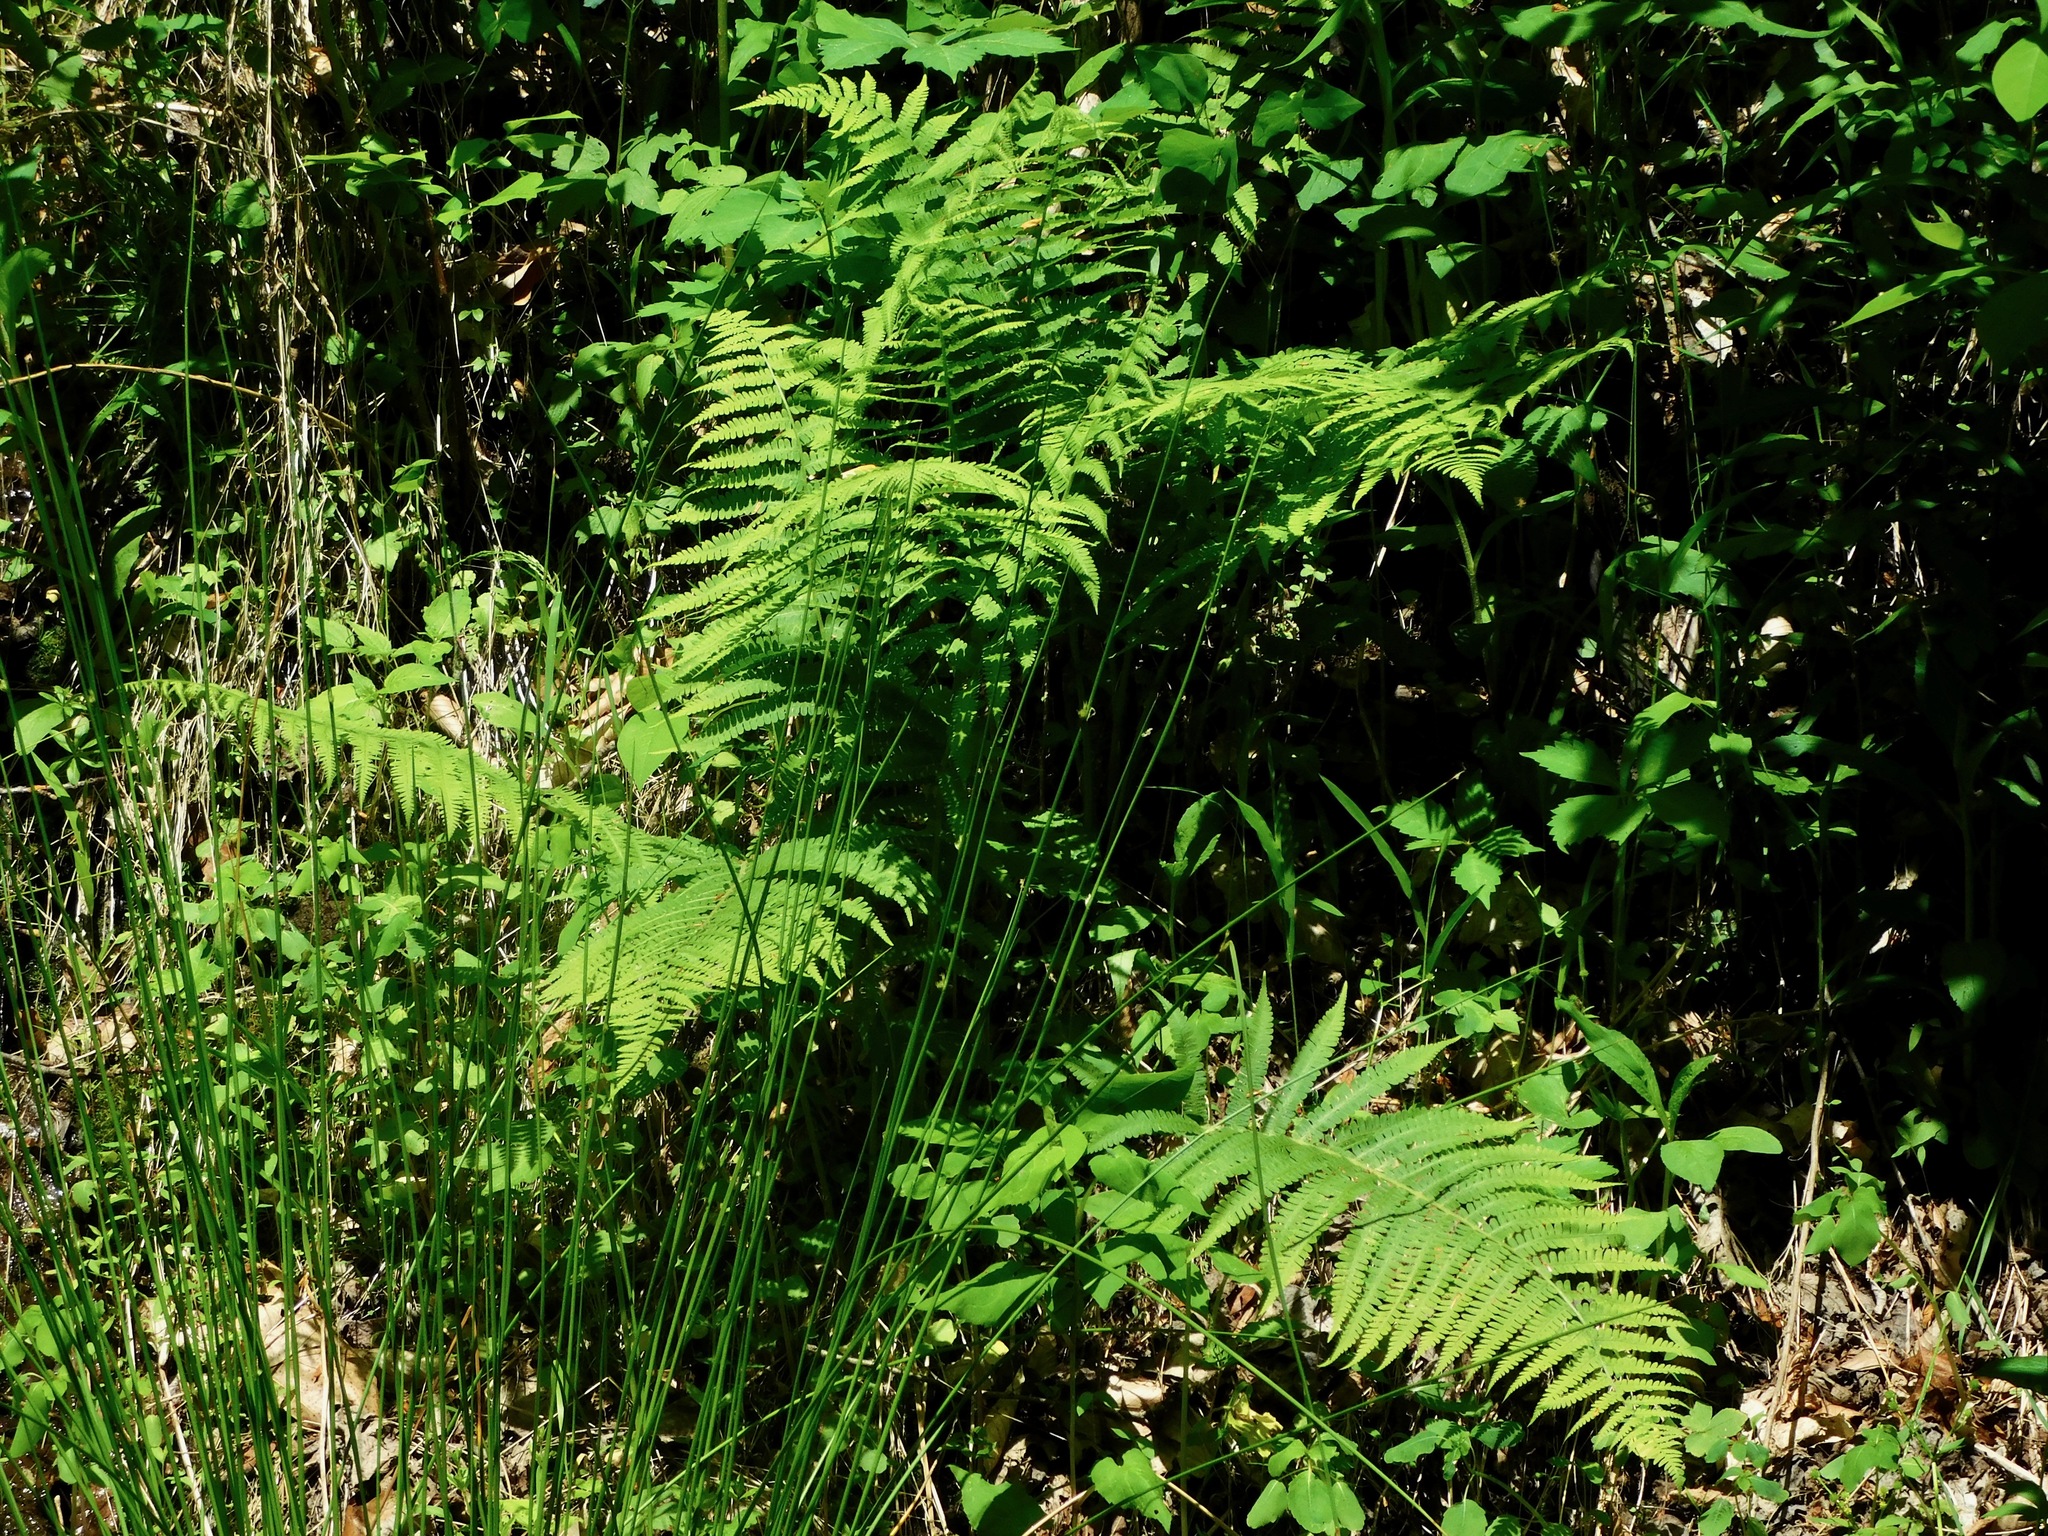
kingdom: Plantae
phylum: Tracheophyta
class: Polypodiopsida
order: Polypodiales
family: Athyriaceae
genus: Deparia
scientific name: Deparia acrostichoides
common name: Silver false spleenwort
